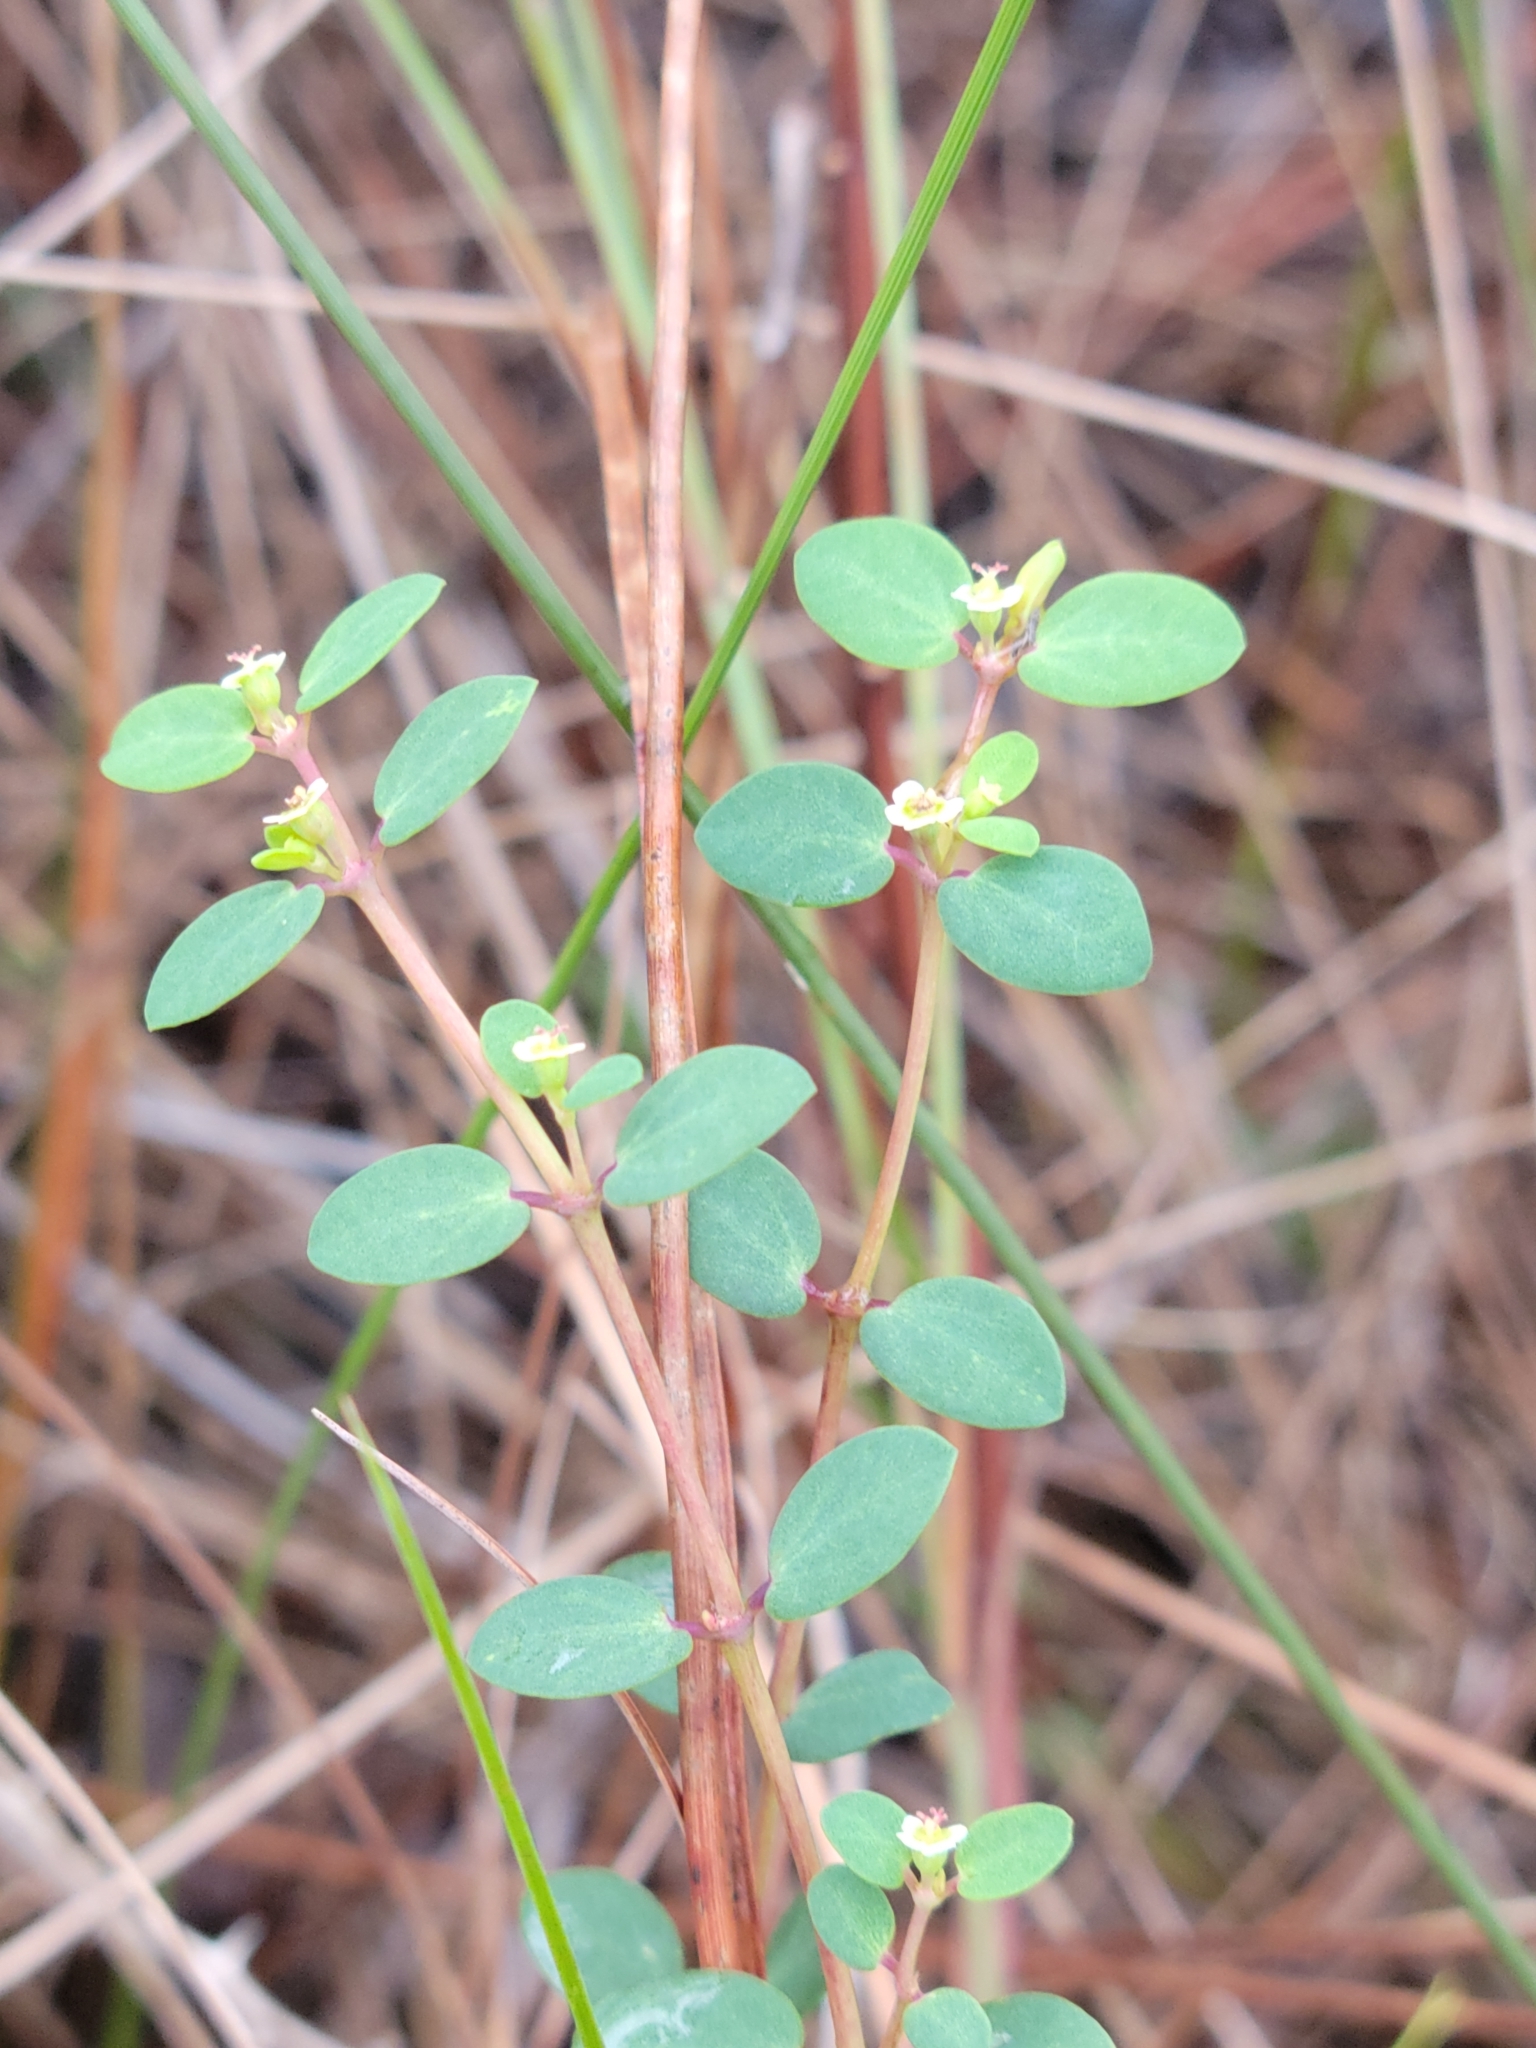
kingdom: Plantae
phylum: Tracheophyta
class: Magnoliopsida
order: Malpighiales
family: Euphorbiaceae
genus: Euphorbia
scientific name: Euphorbia porteriana
